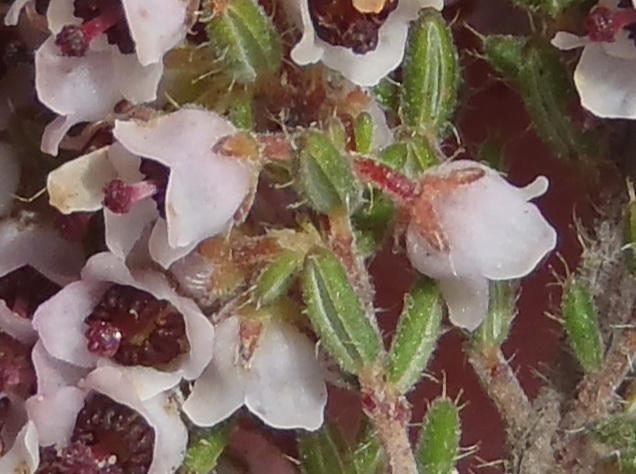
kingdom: Plantae
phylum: Tracheophyta
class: Magnoliopsida
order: Ericales
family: Ericaceae
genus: Erica
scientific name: Erica glandulipila
